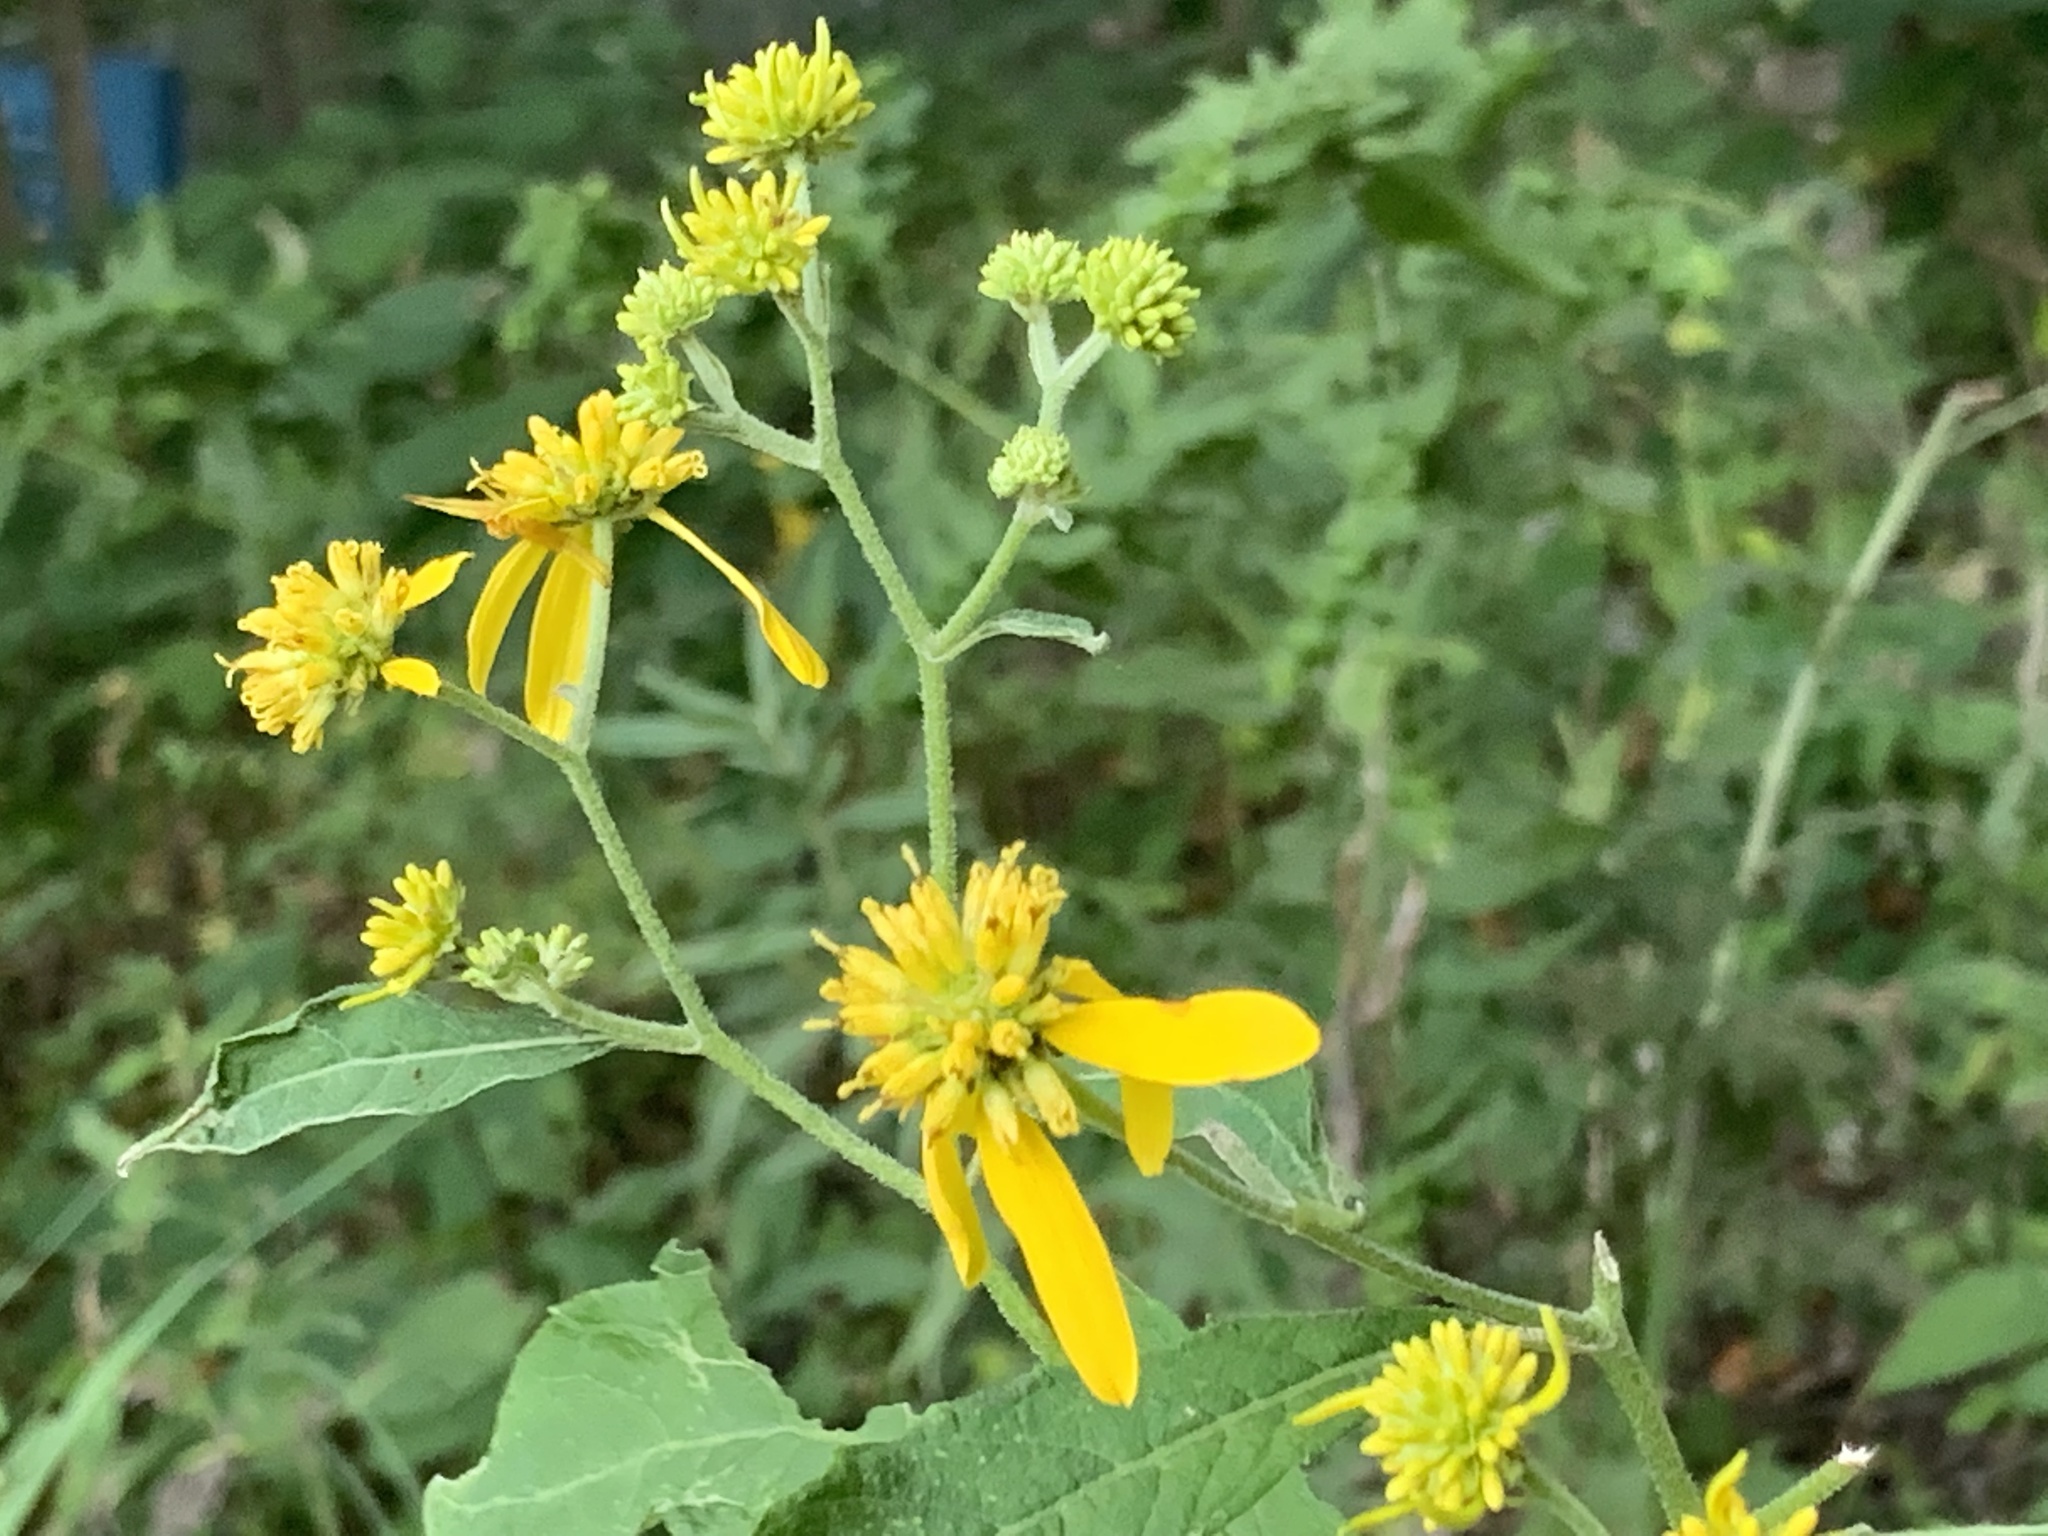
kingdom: Plantae
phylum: Tracheophyta
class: Magnoliopsida
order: Asterales
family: Asteraceae
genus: Verbesina
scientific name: Verbesina alternifolia
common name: Wingstem
